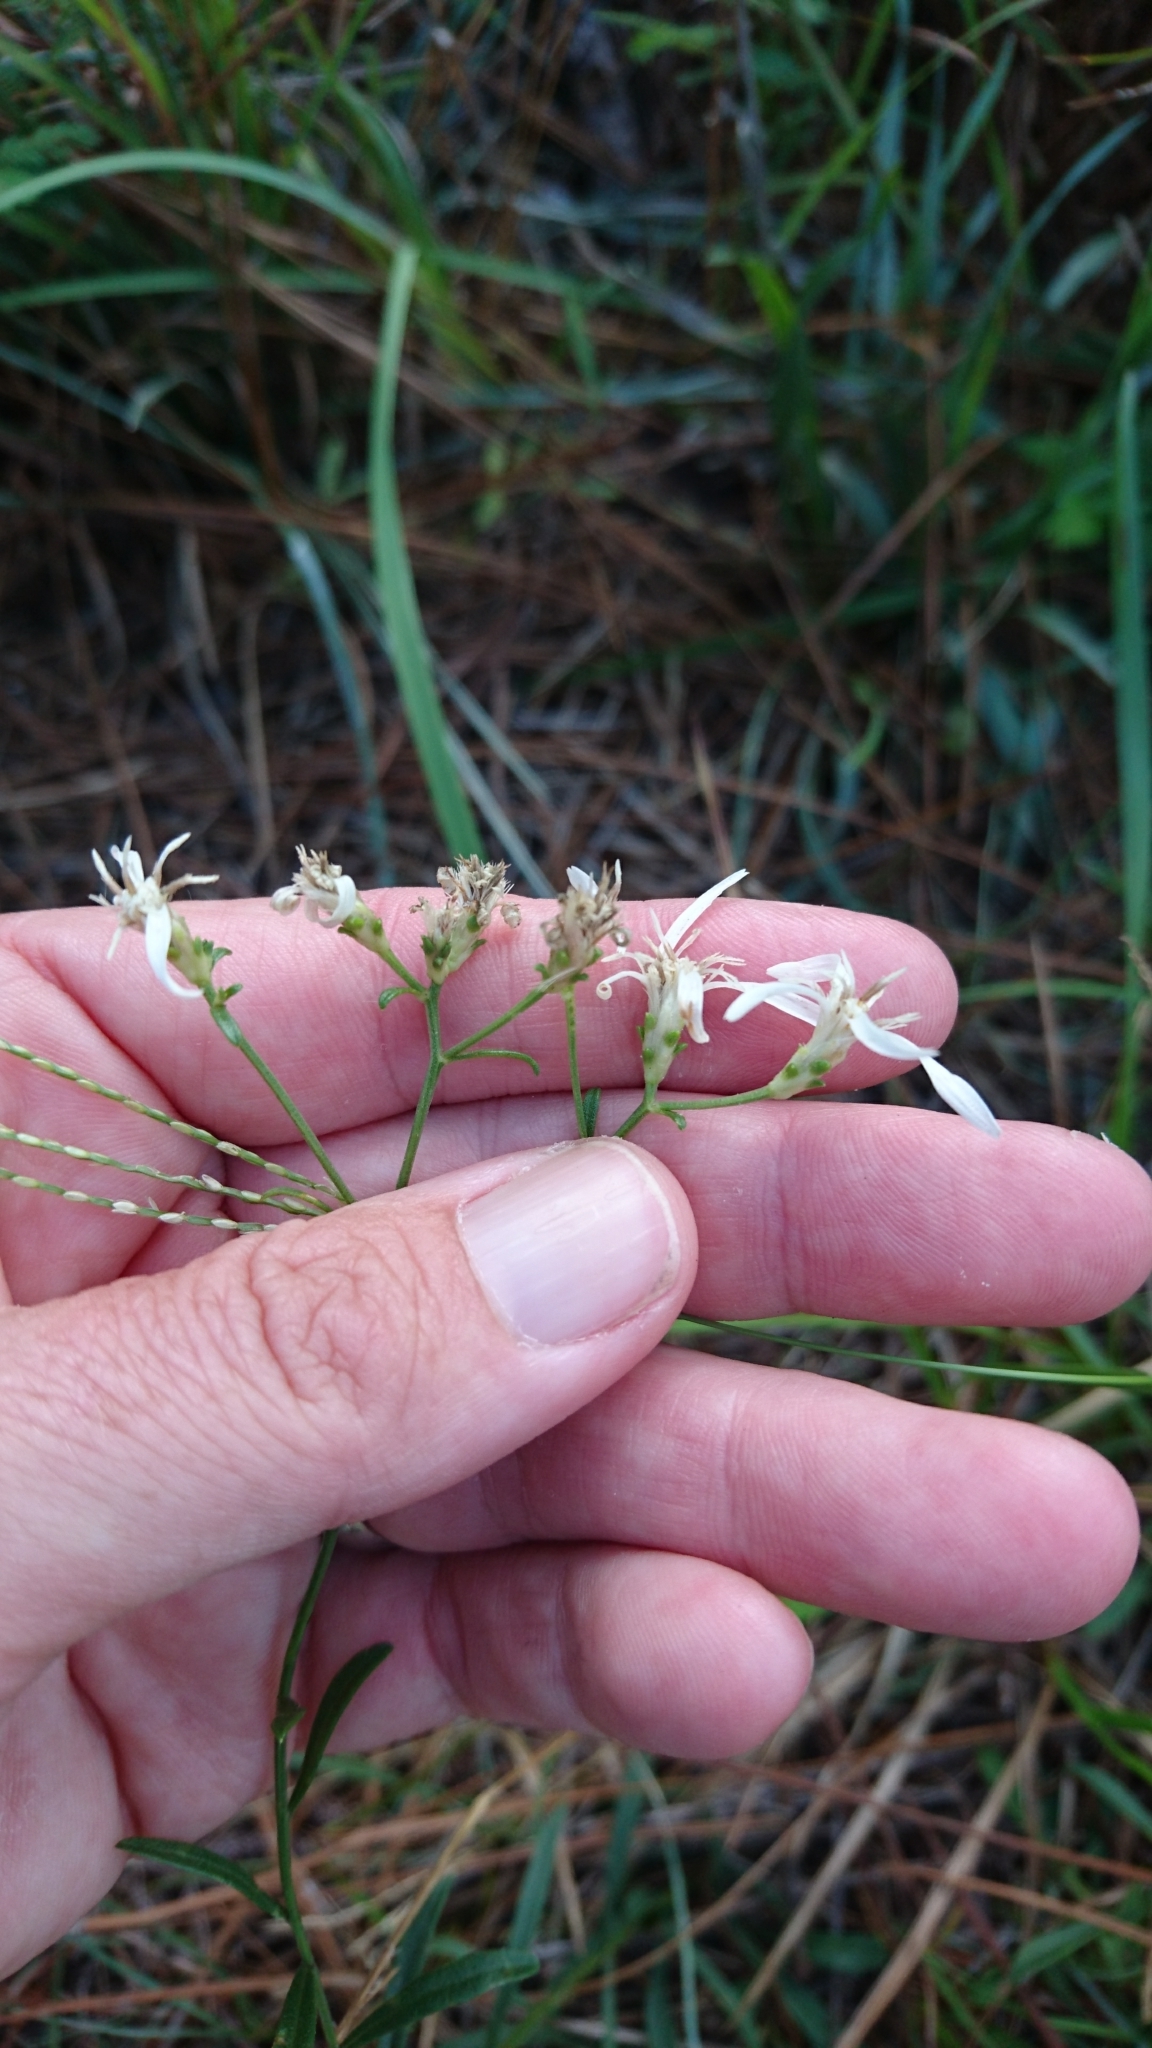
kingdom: Plantae
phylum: Tracheophyta
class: Magnoliopsida
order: Asterales
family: Asteraceae
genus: Sericocarpus
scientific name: Sericocarpus linifolius
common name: Narrow-leaf aster
